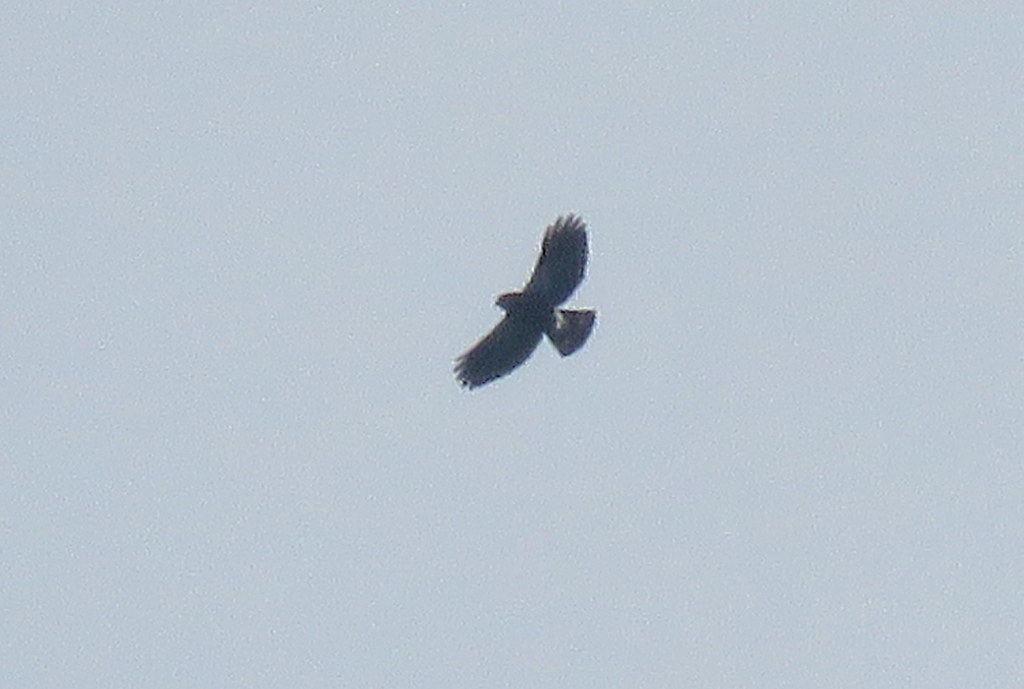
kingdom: Animalia
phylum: Chordata
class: Aves
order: Accipitriformes
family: Accipitridae
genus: Percnohierax
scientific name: Percnohierax leucorrhous
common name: White-rumped hawk
